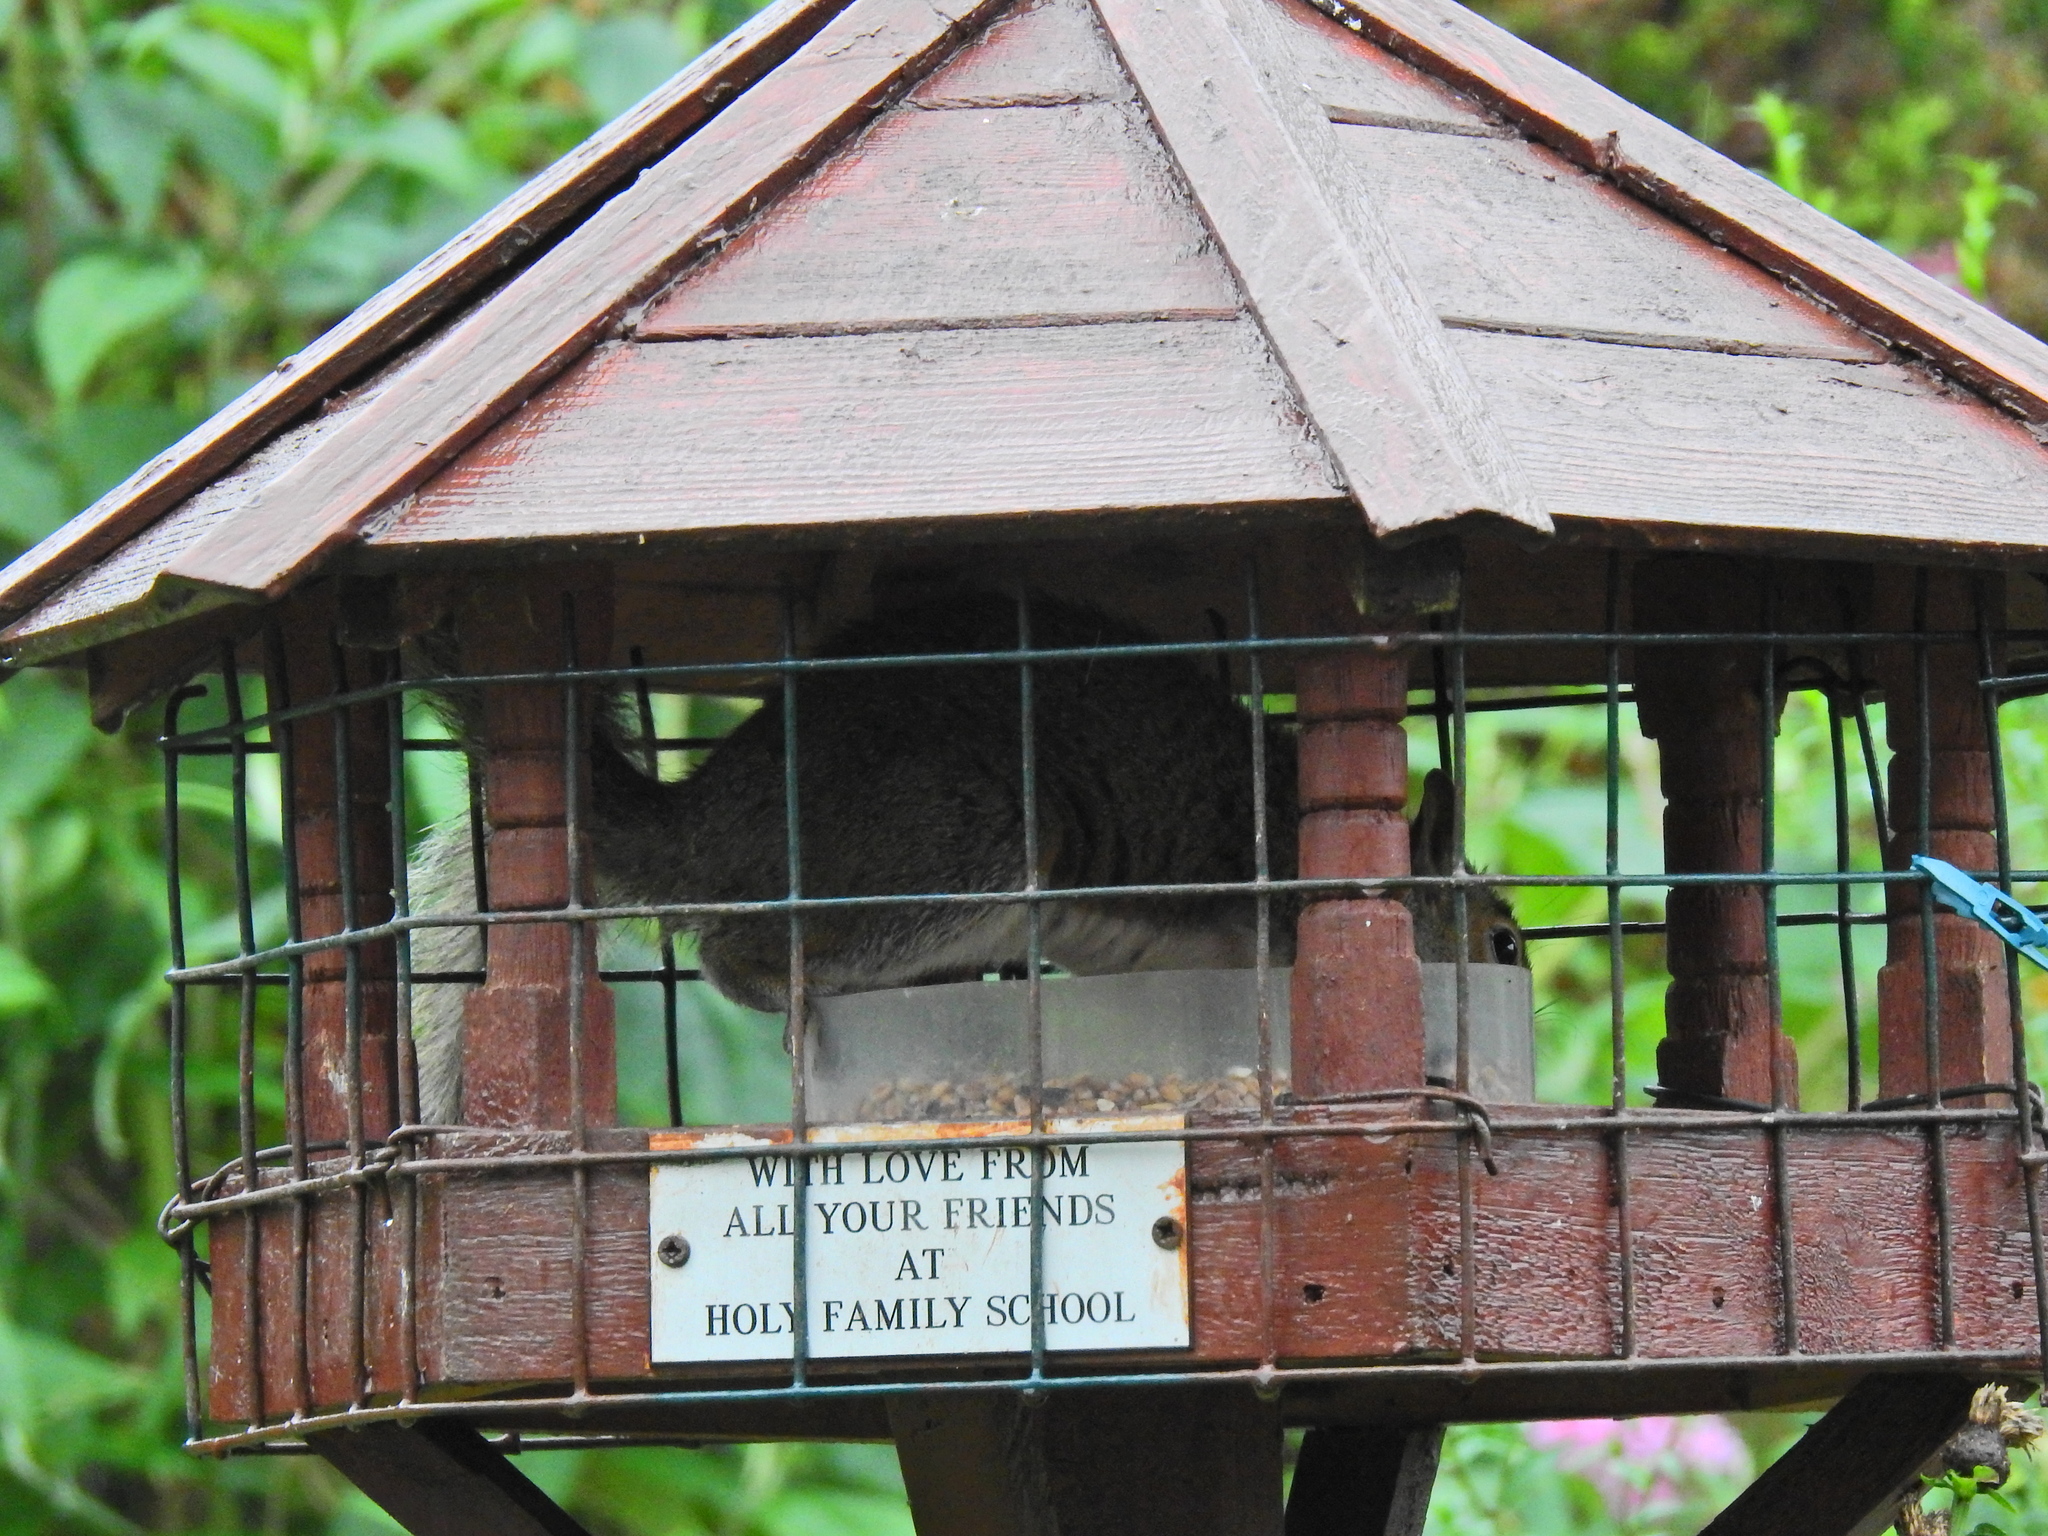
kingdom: Animalia
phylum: Chordata
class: Mammalia
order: Rodentia
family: Sciuridae
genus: Sciurus
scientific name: Sciurus carolinensis
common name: Eastern gray squirrel
